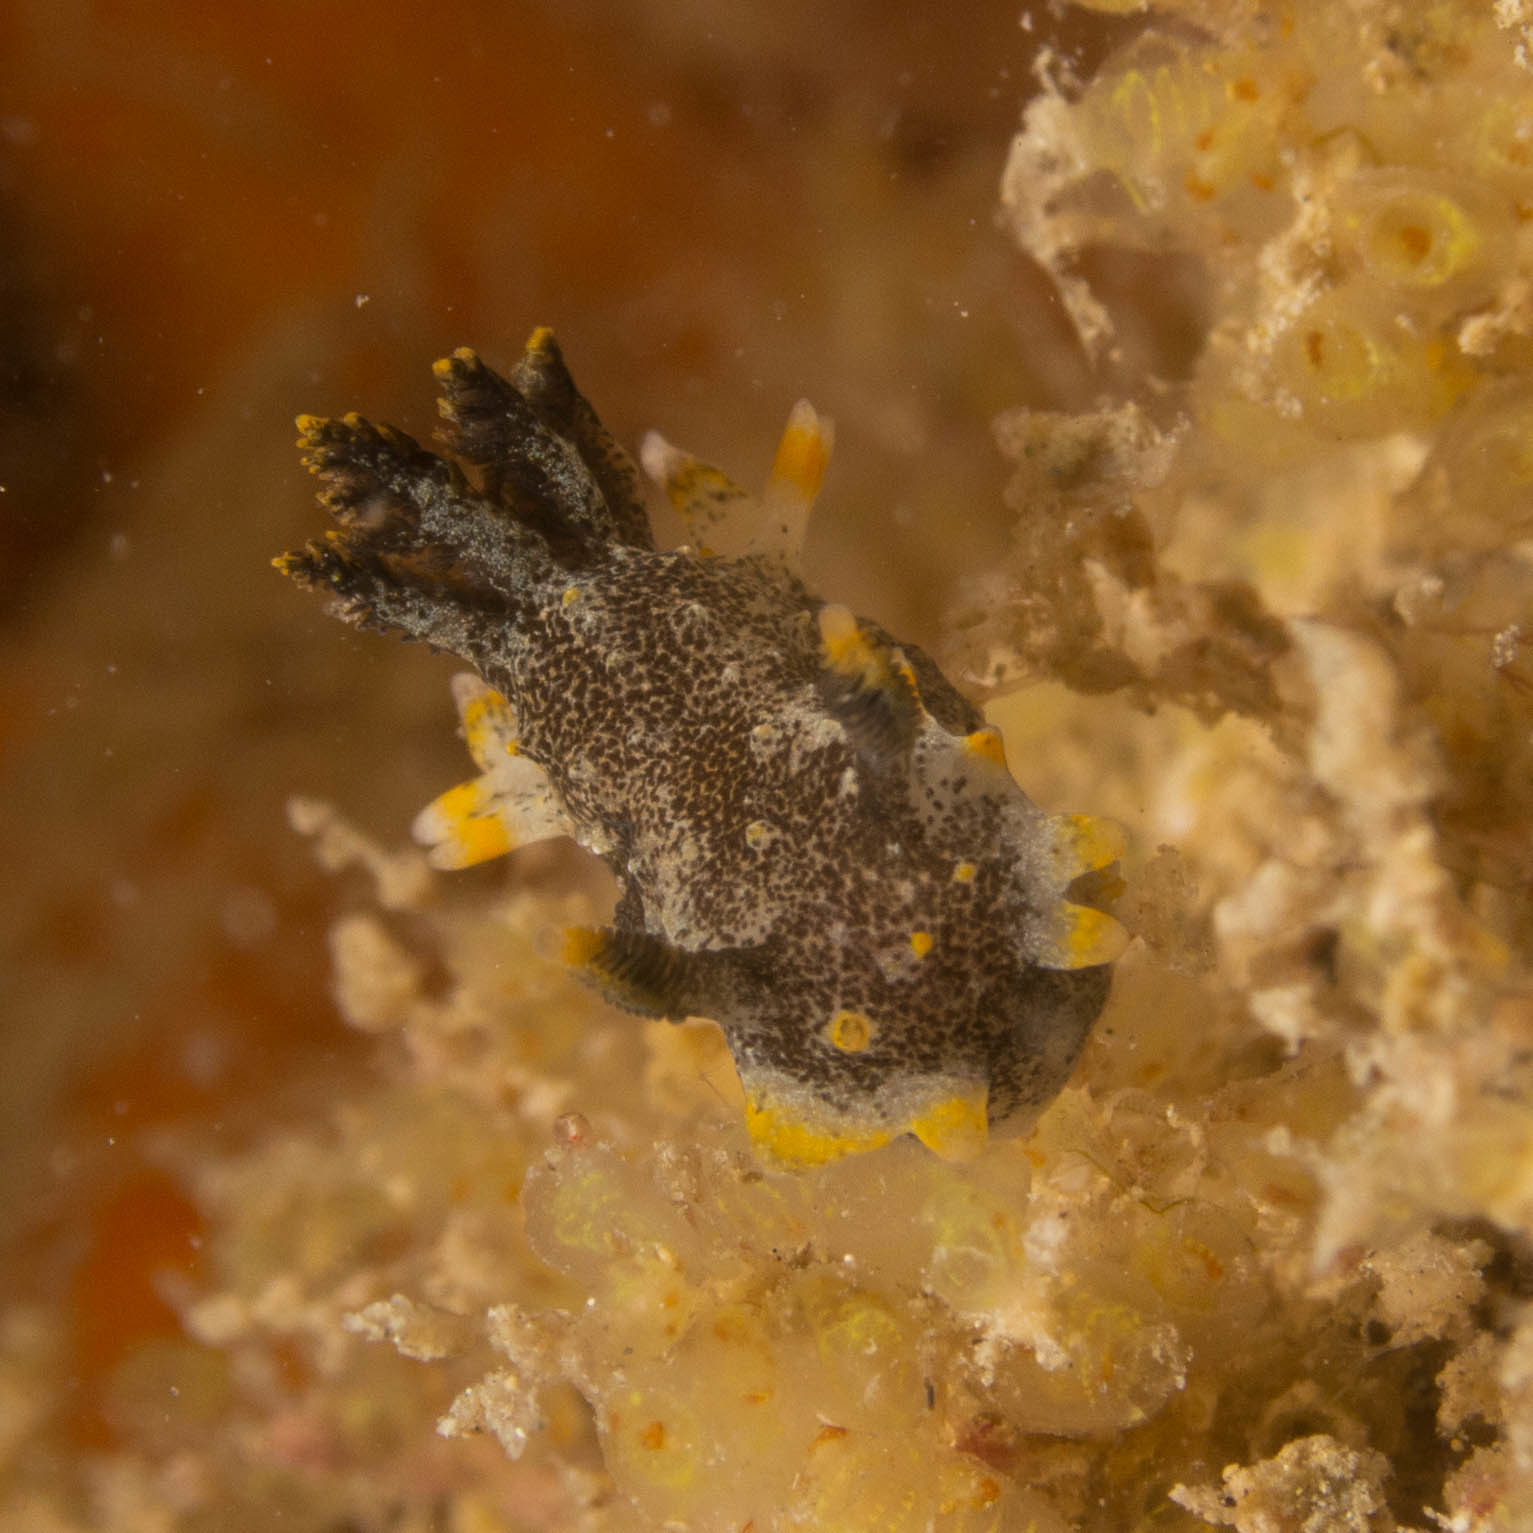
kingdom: Animalia
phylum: Mollusca
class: Gastropoda
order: Nudibranchia
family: Polyceridae
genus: Polycera
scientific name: Polycera hedgpethi
